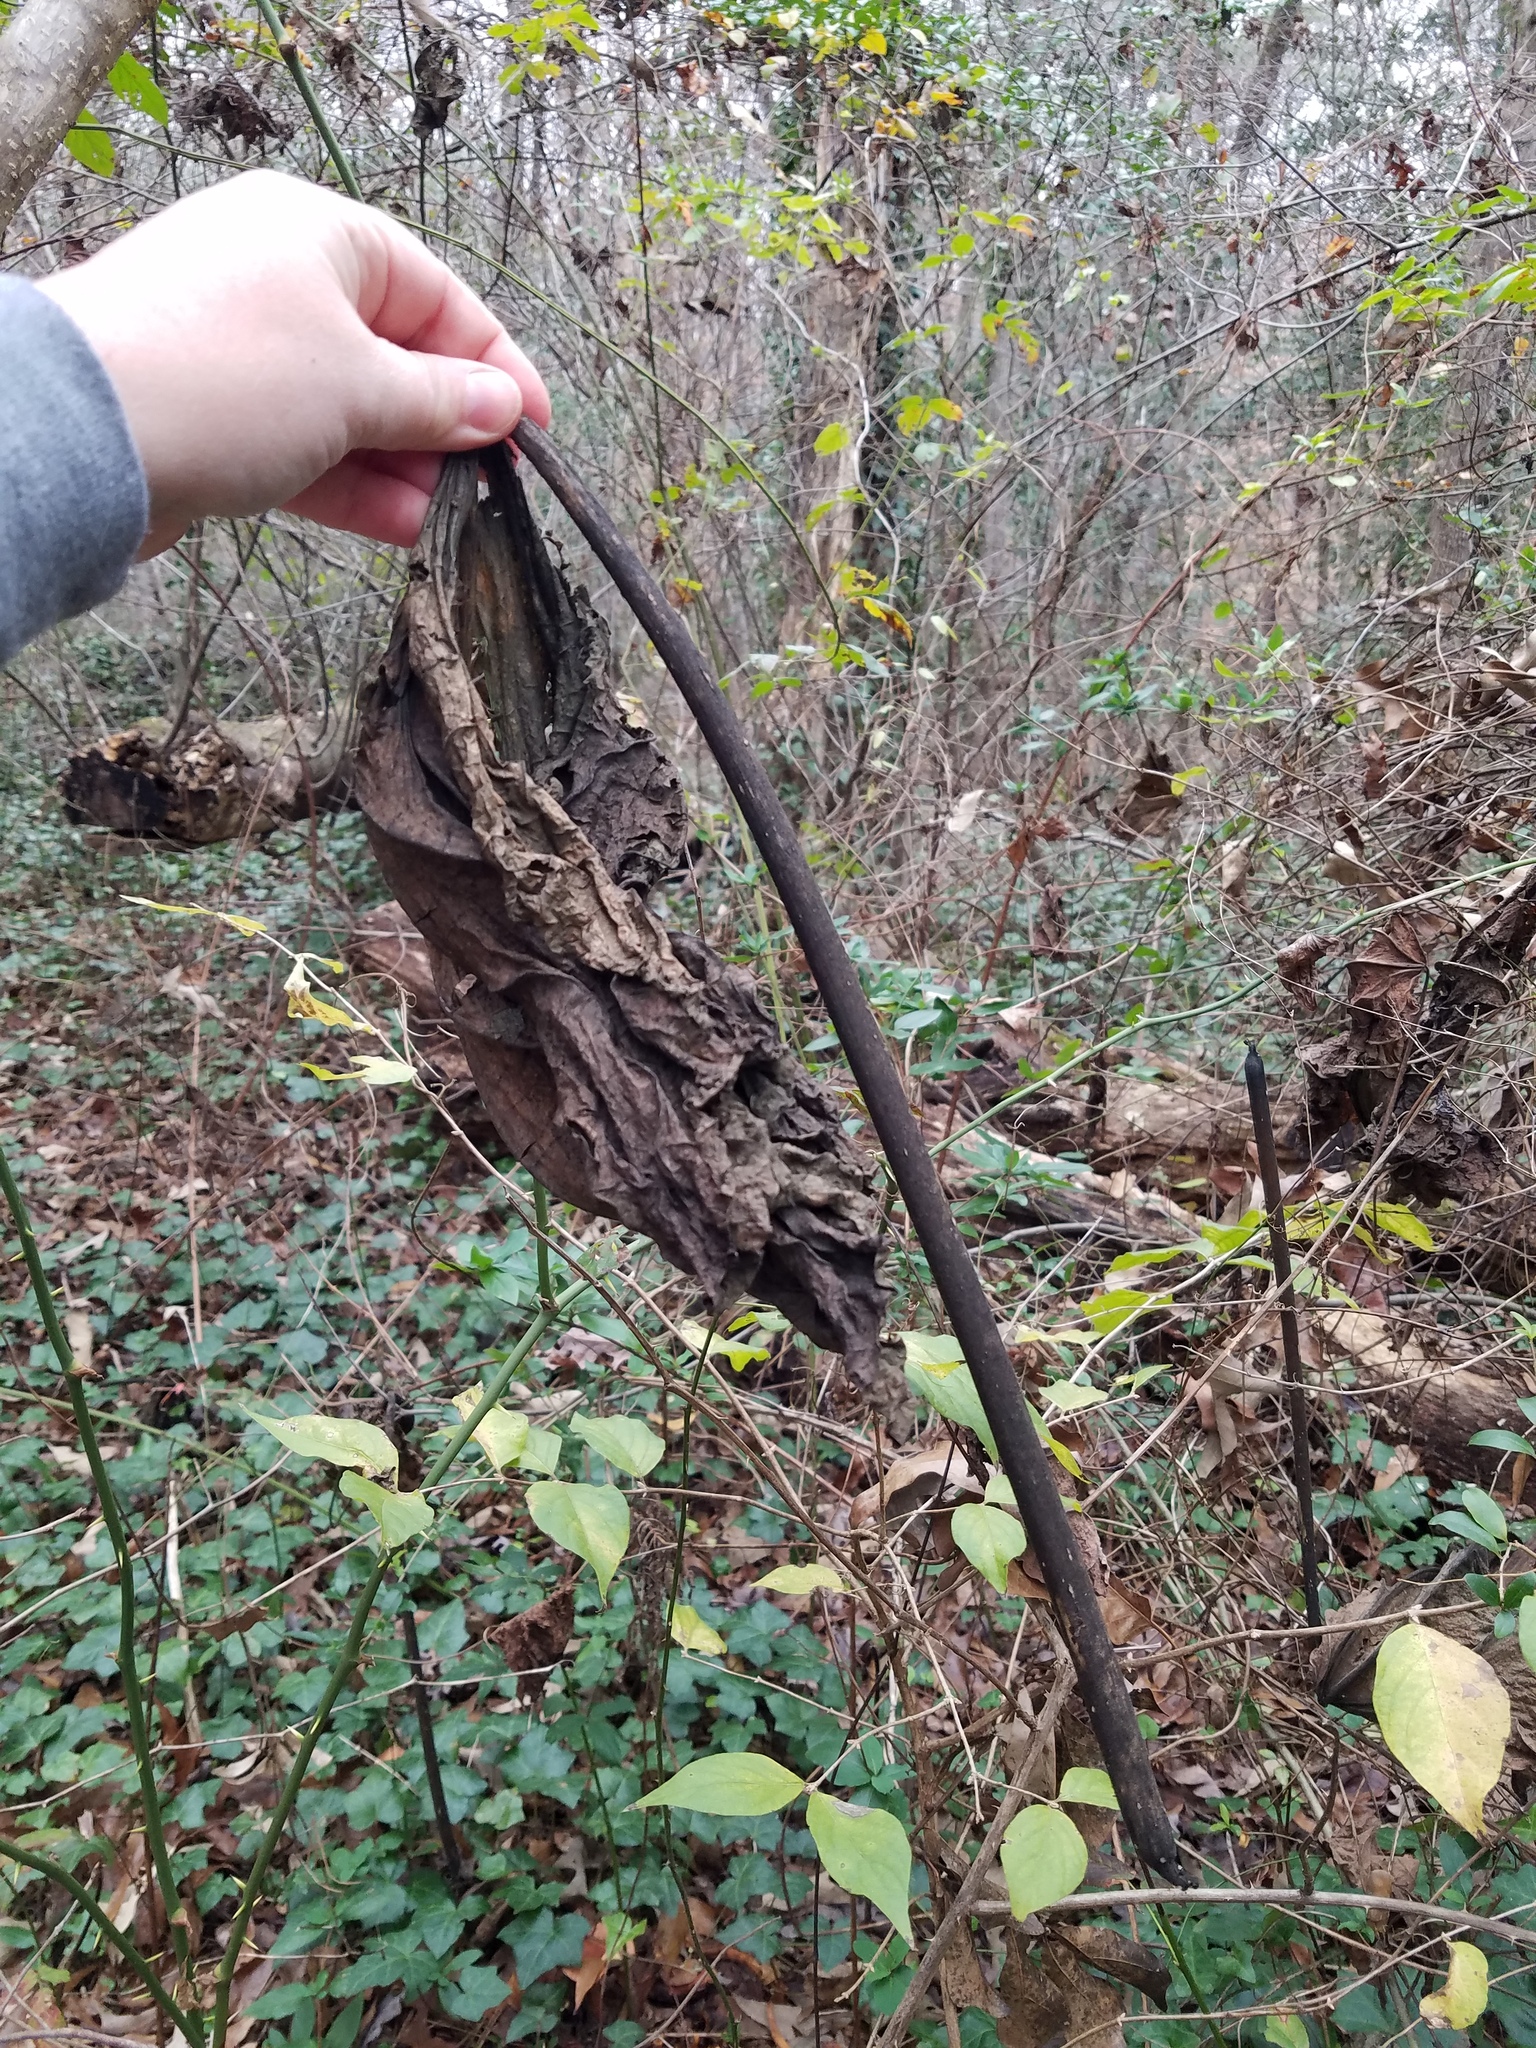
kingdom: Plantae
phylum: Tracheophyta
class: Magnoliopsida
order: Lamiales
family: Paulowniaceae
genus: Paulownia
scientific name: Paulownia tomentosa
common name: Foxglove-tree
